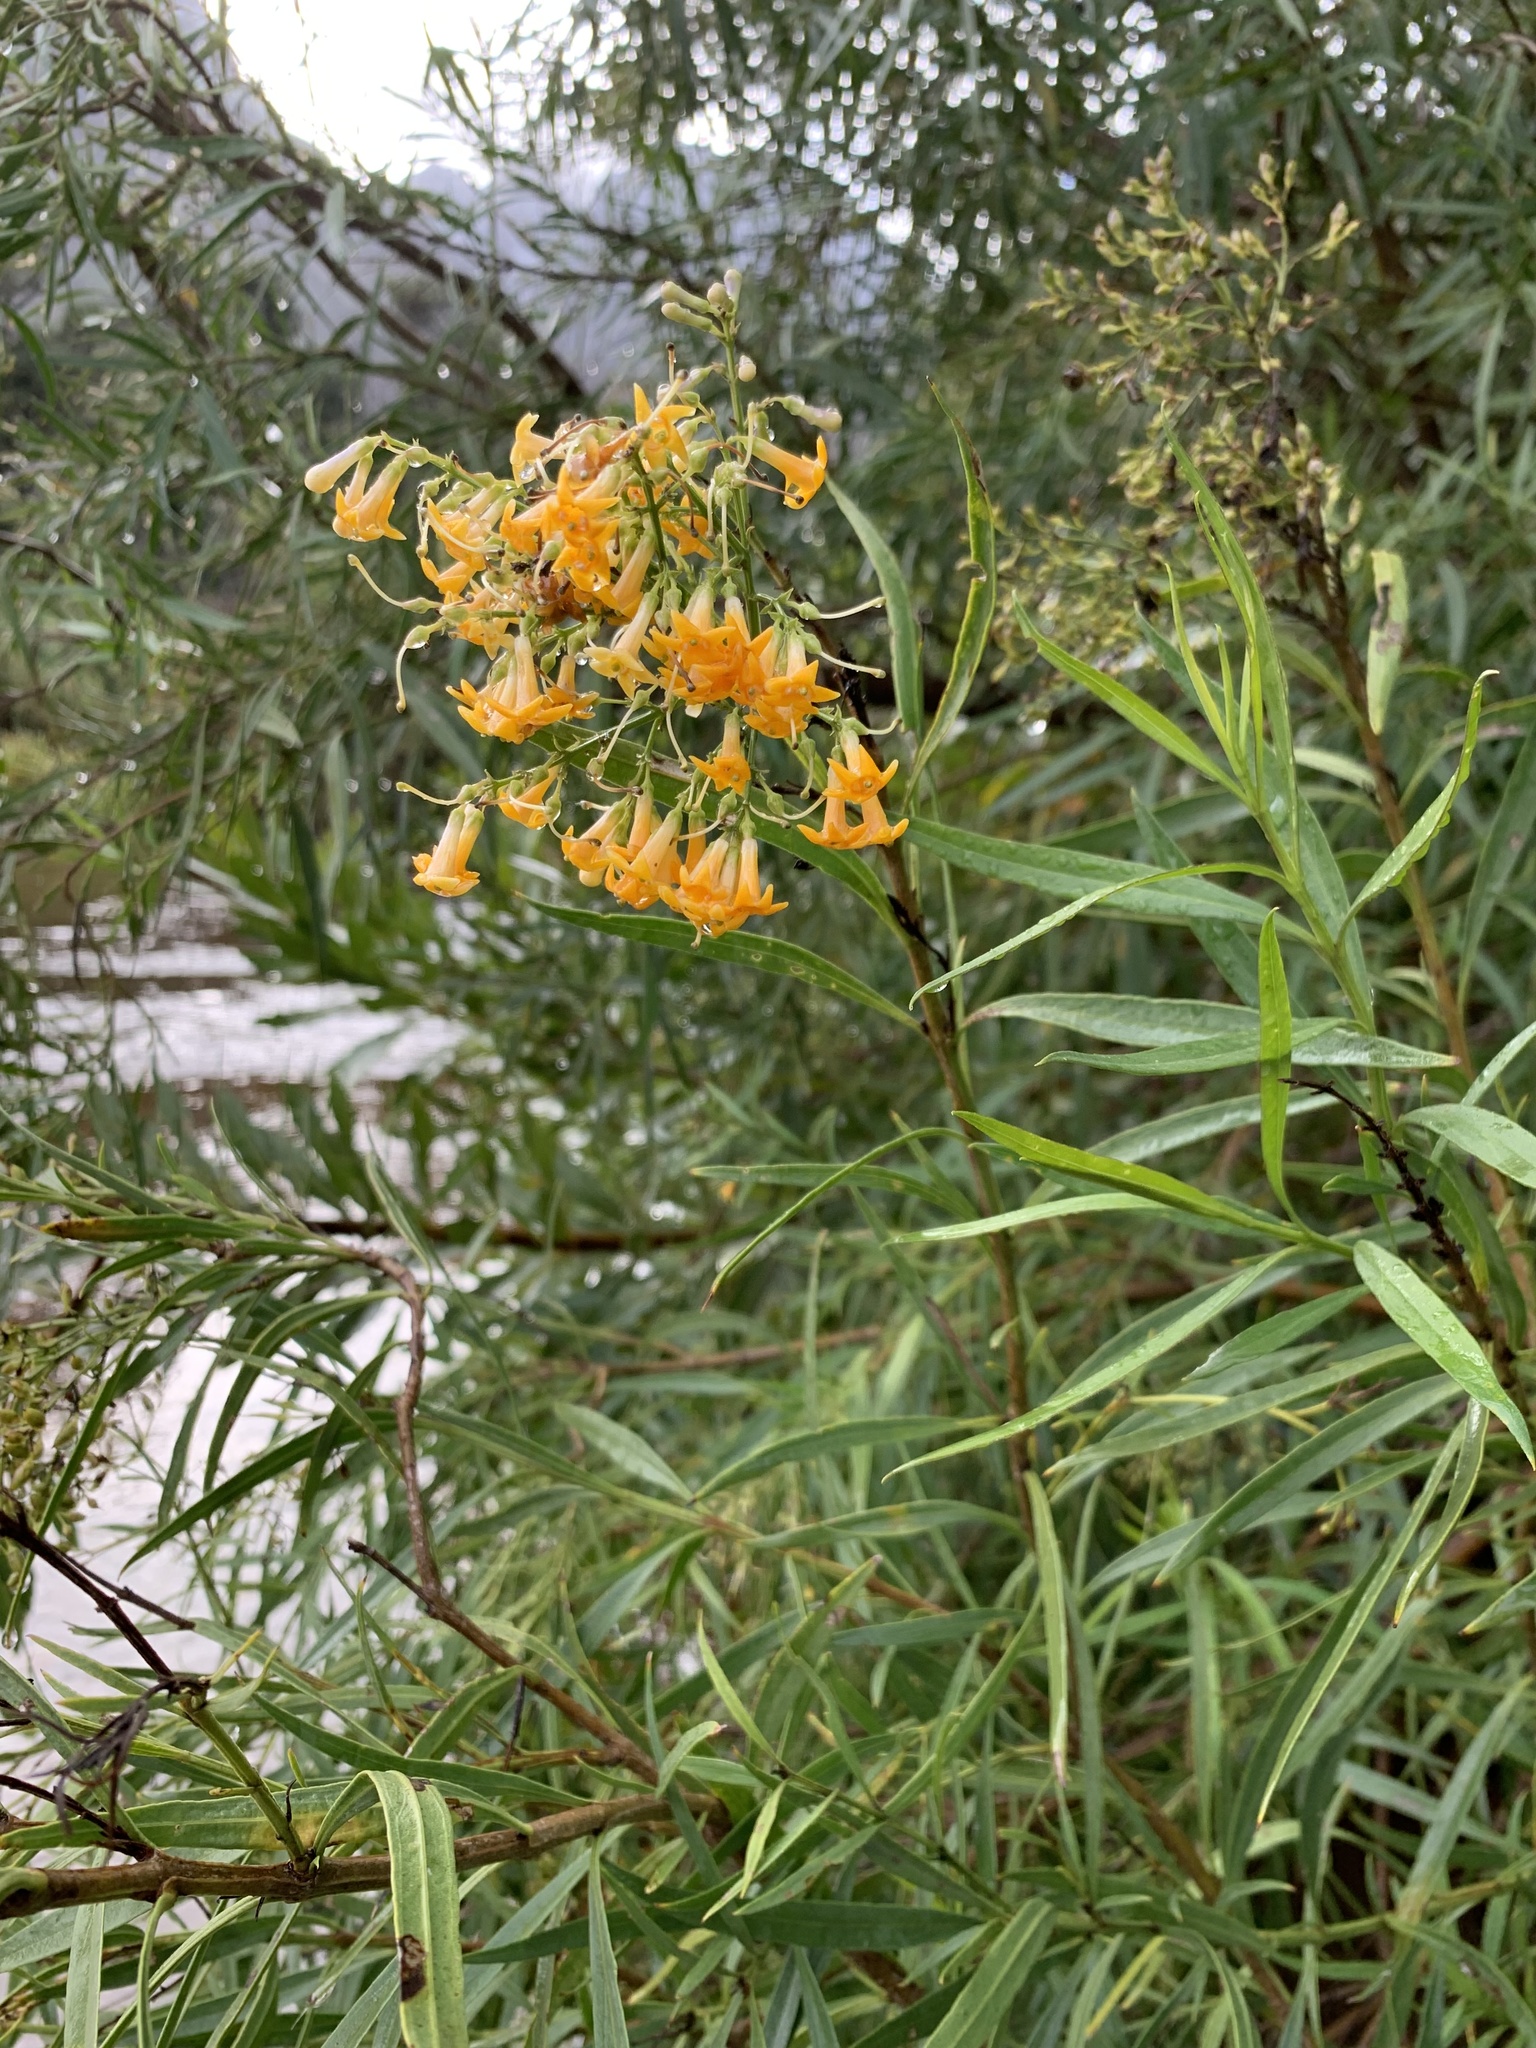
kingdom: Plantae
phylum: Tracheophyta
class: Magnoliopsida
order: Lamiales
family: Scrophulariaceae
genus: Freylinia
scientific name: Freylinia lanceolata
